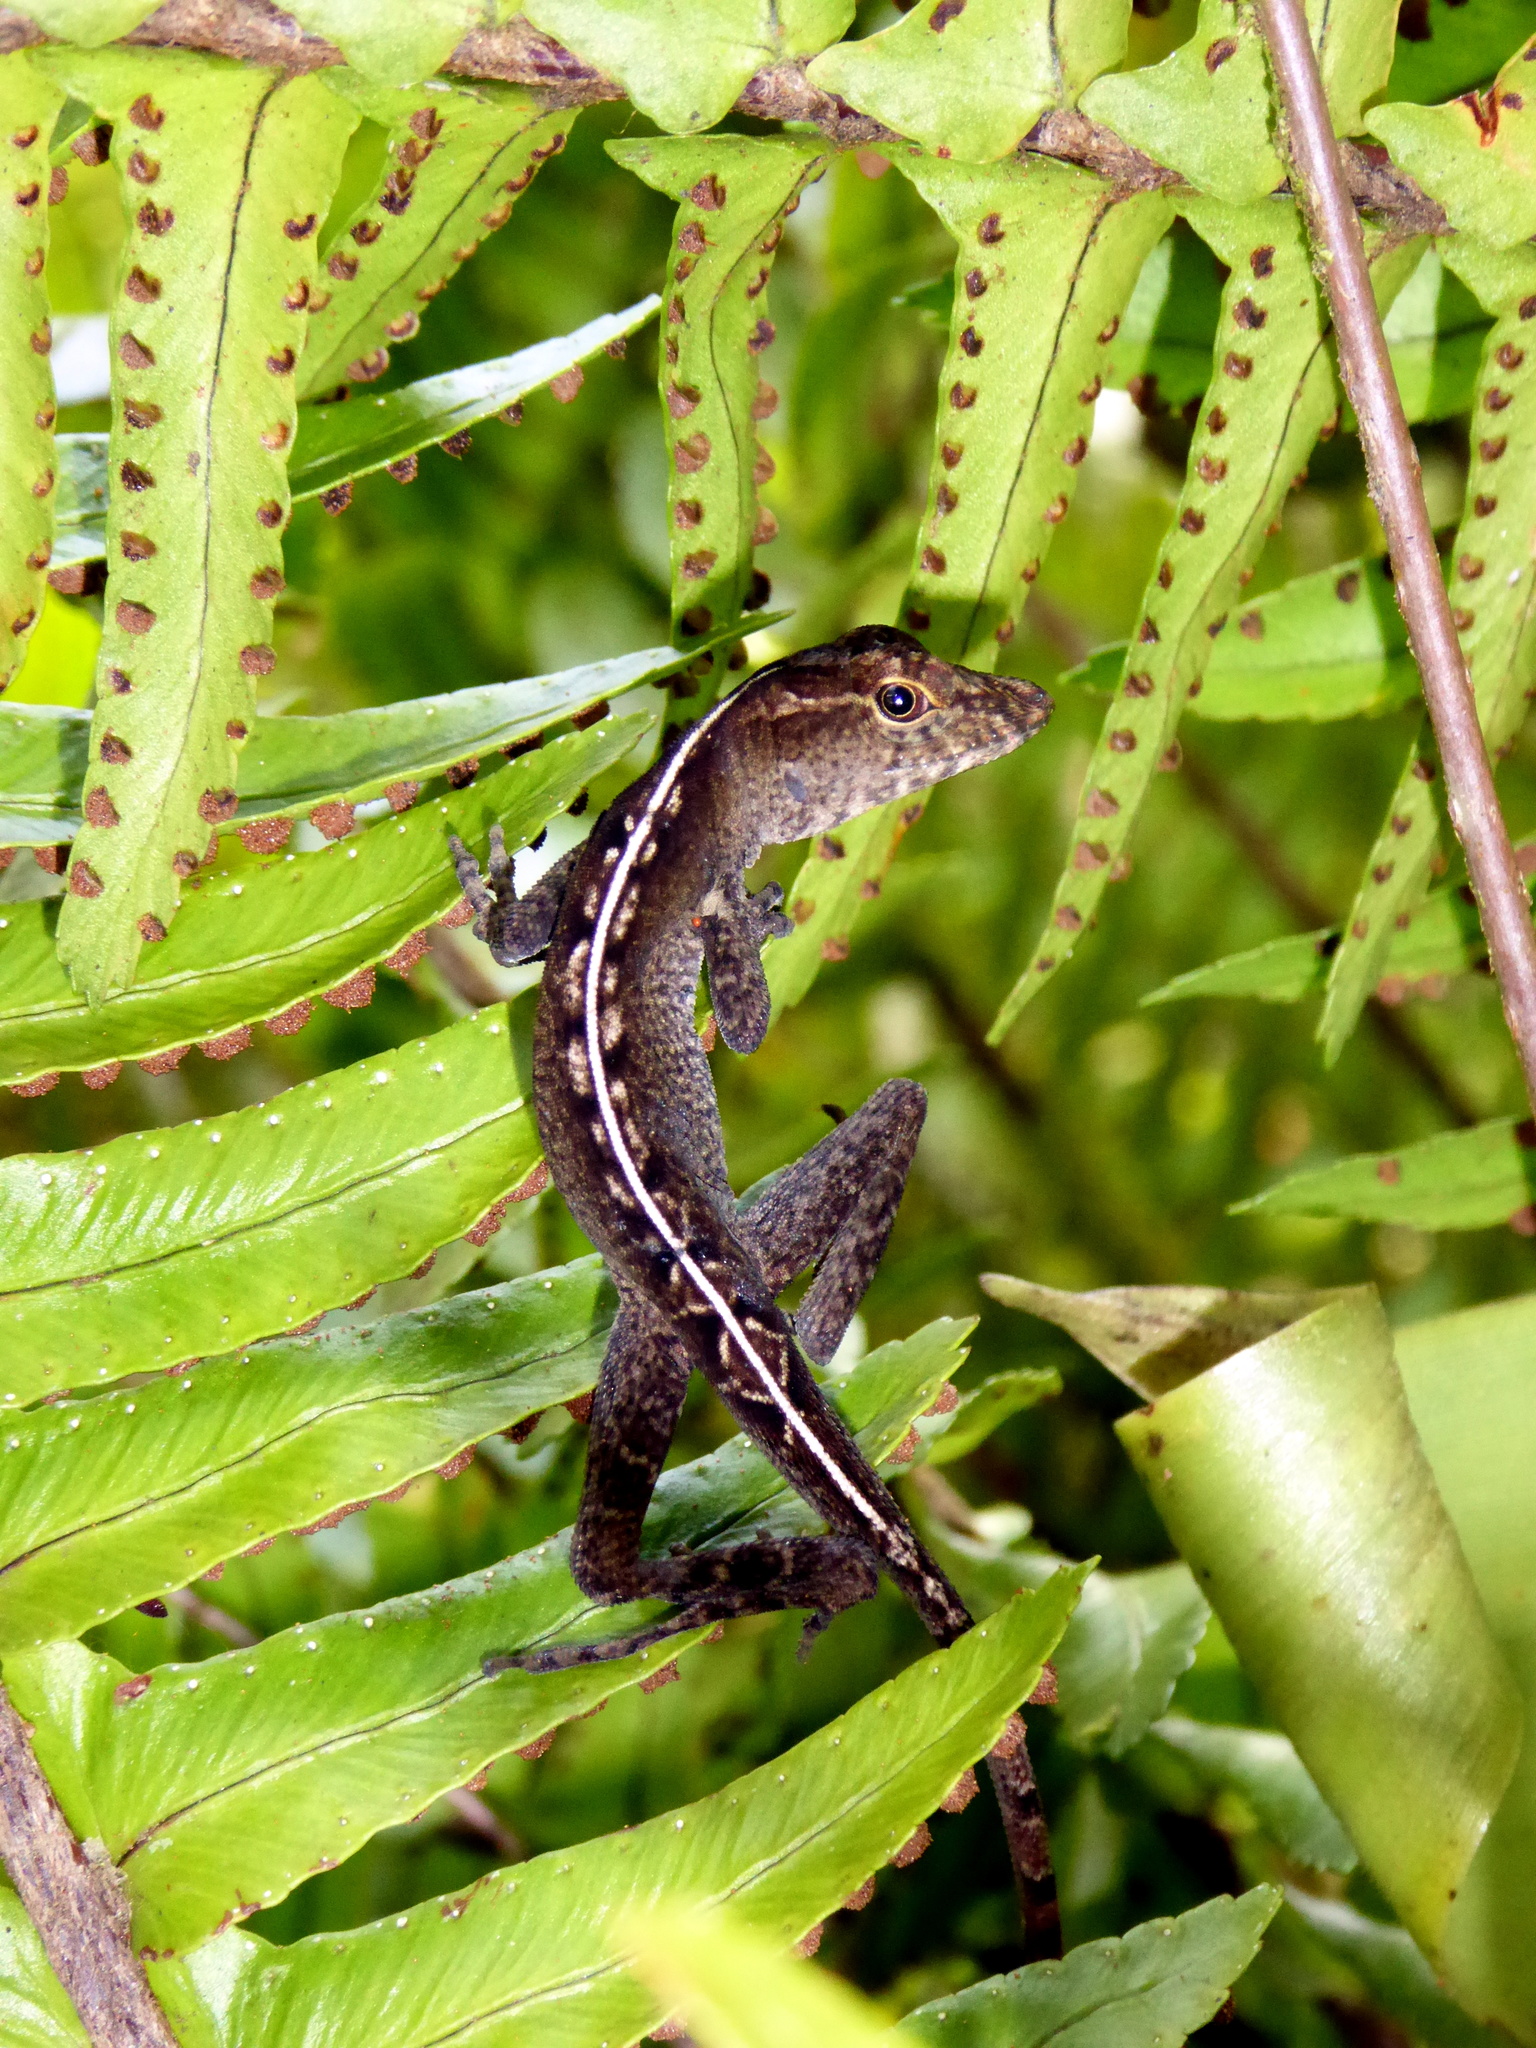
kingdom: Animalia
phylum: Chordata
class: Squamata
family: Dactyloidae
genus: Anolis
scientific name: Anolis cobanensis
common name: Coban anole
